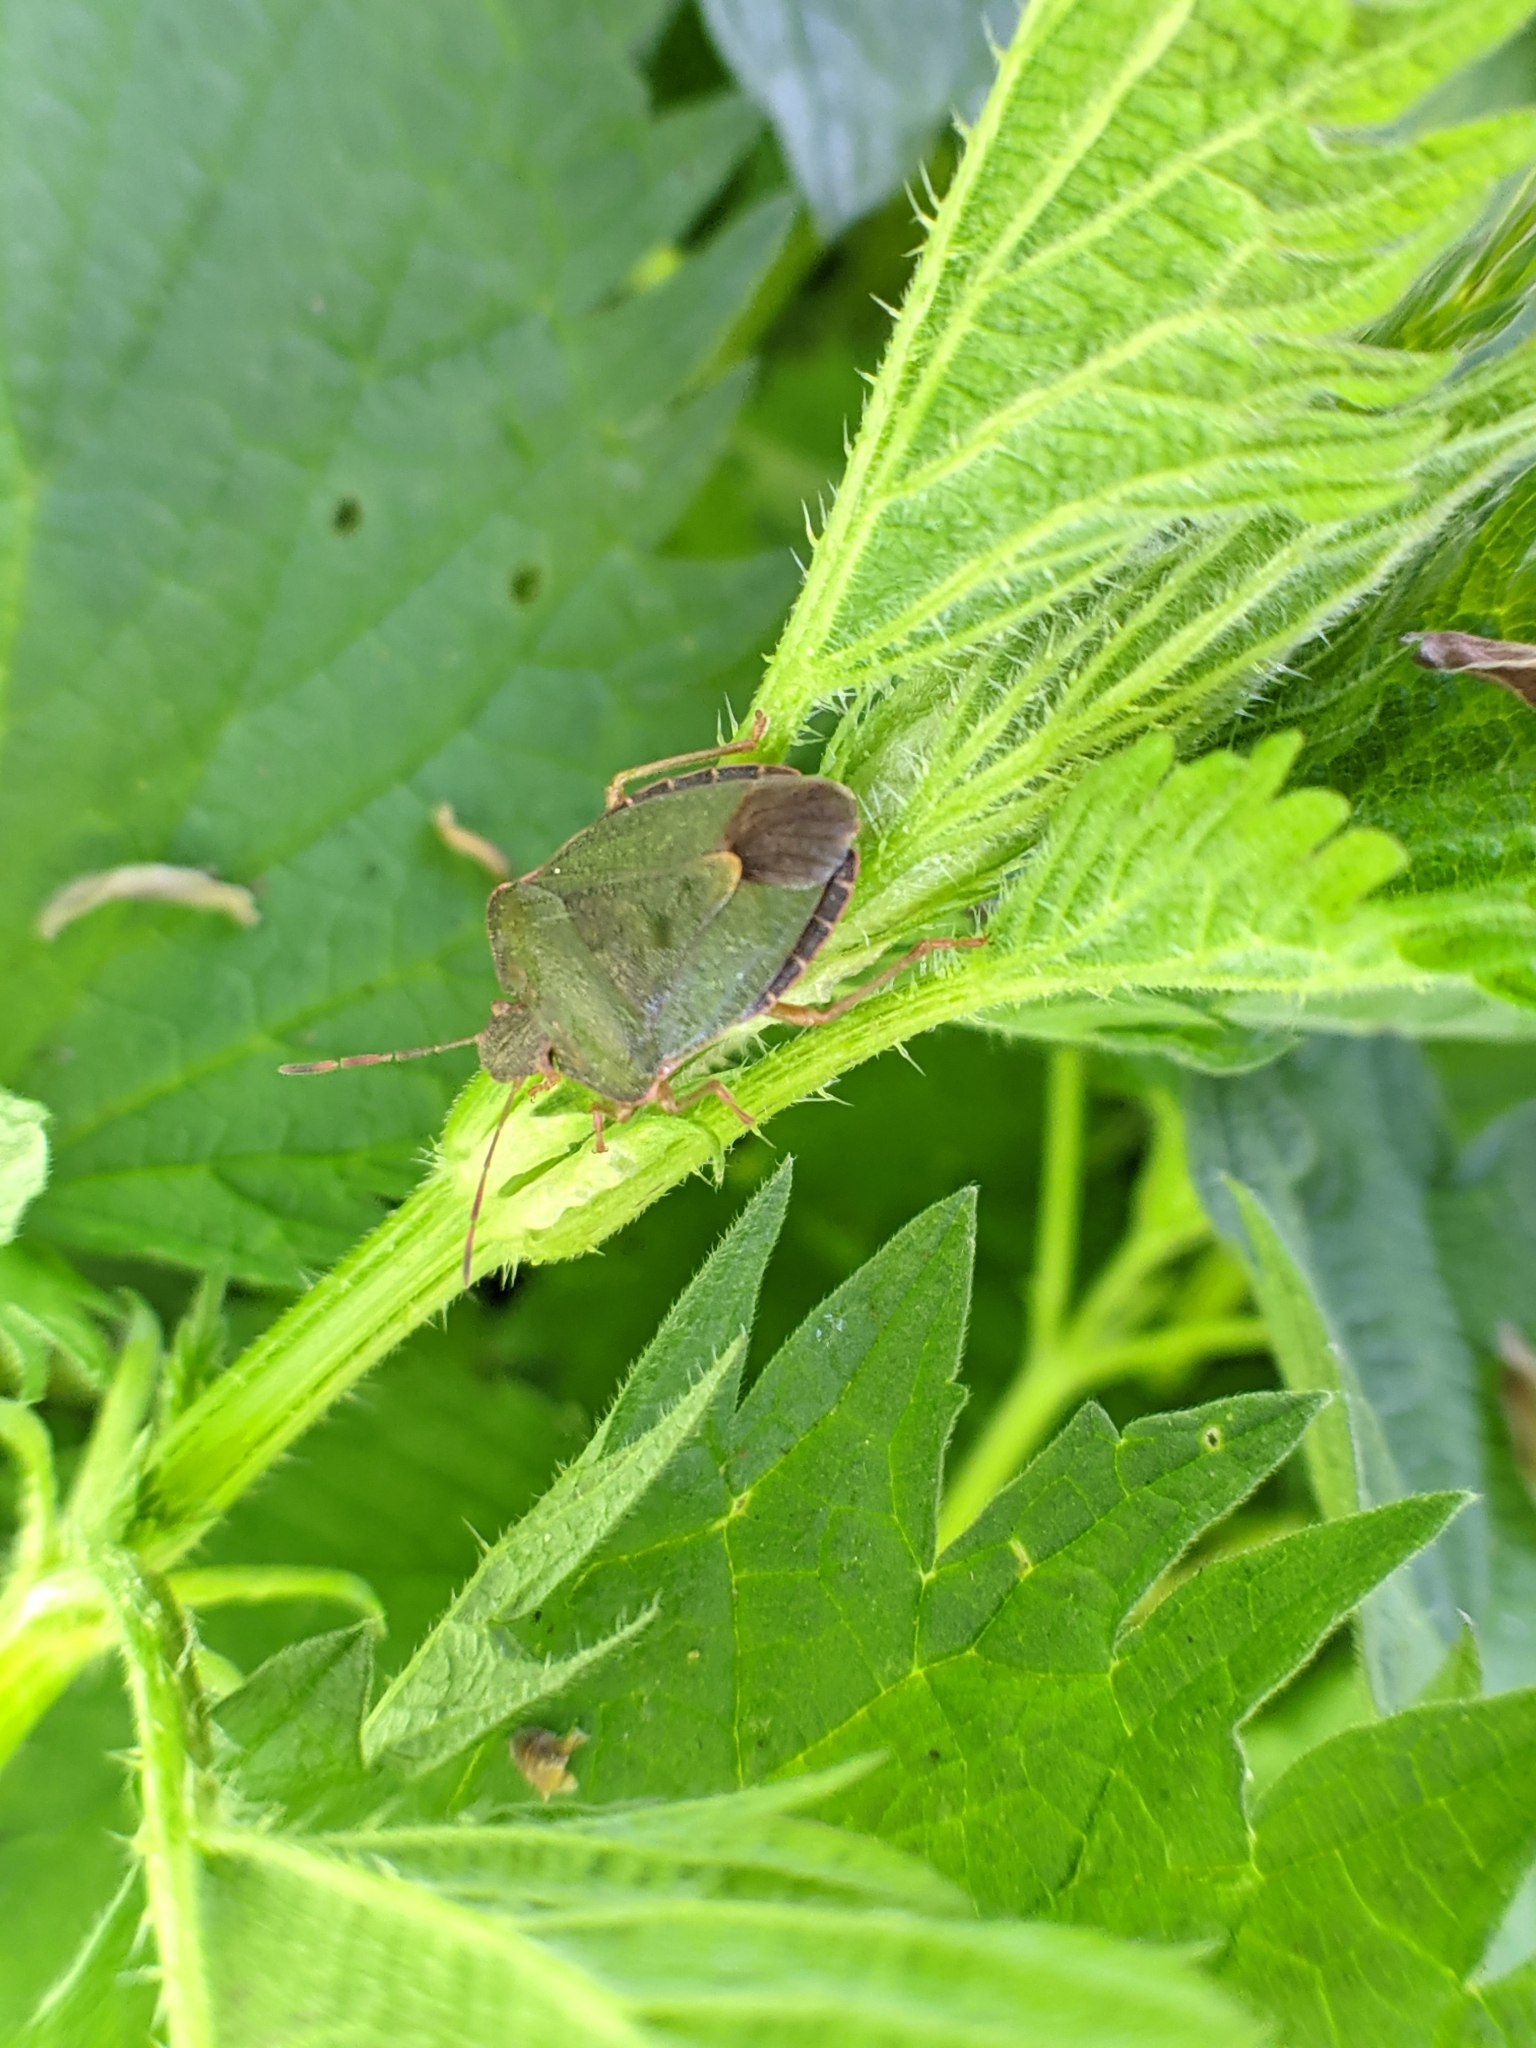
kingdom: Animalia
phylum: Arthropoda
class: Insecta
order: Hemiptera
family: Pentatomidae
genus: Palomena
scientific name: Palomena prasina
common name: Green shieldbug
